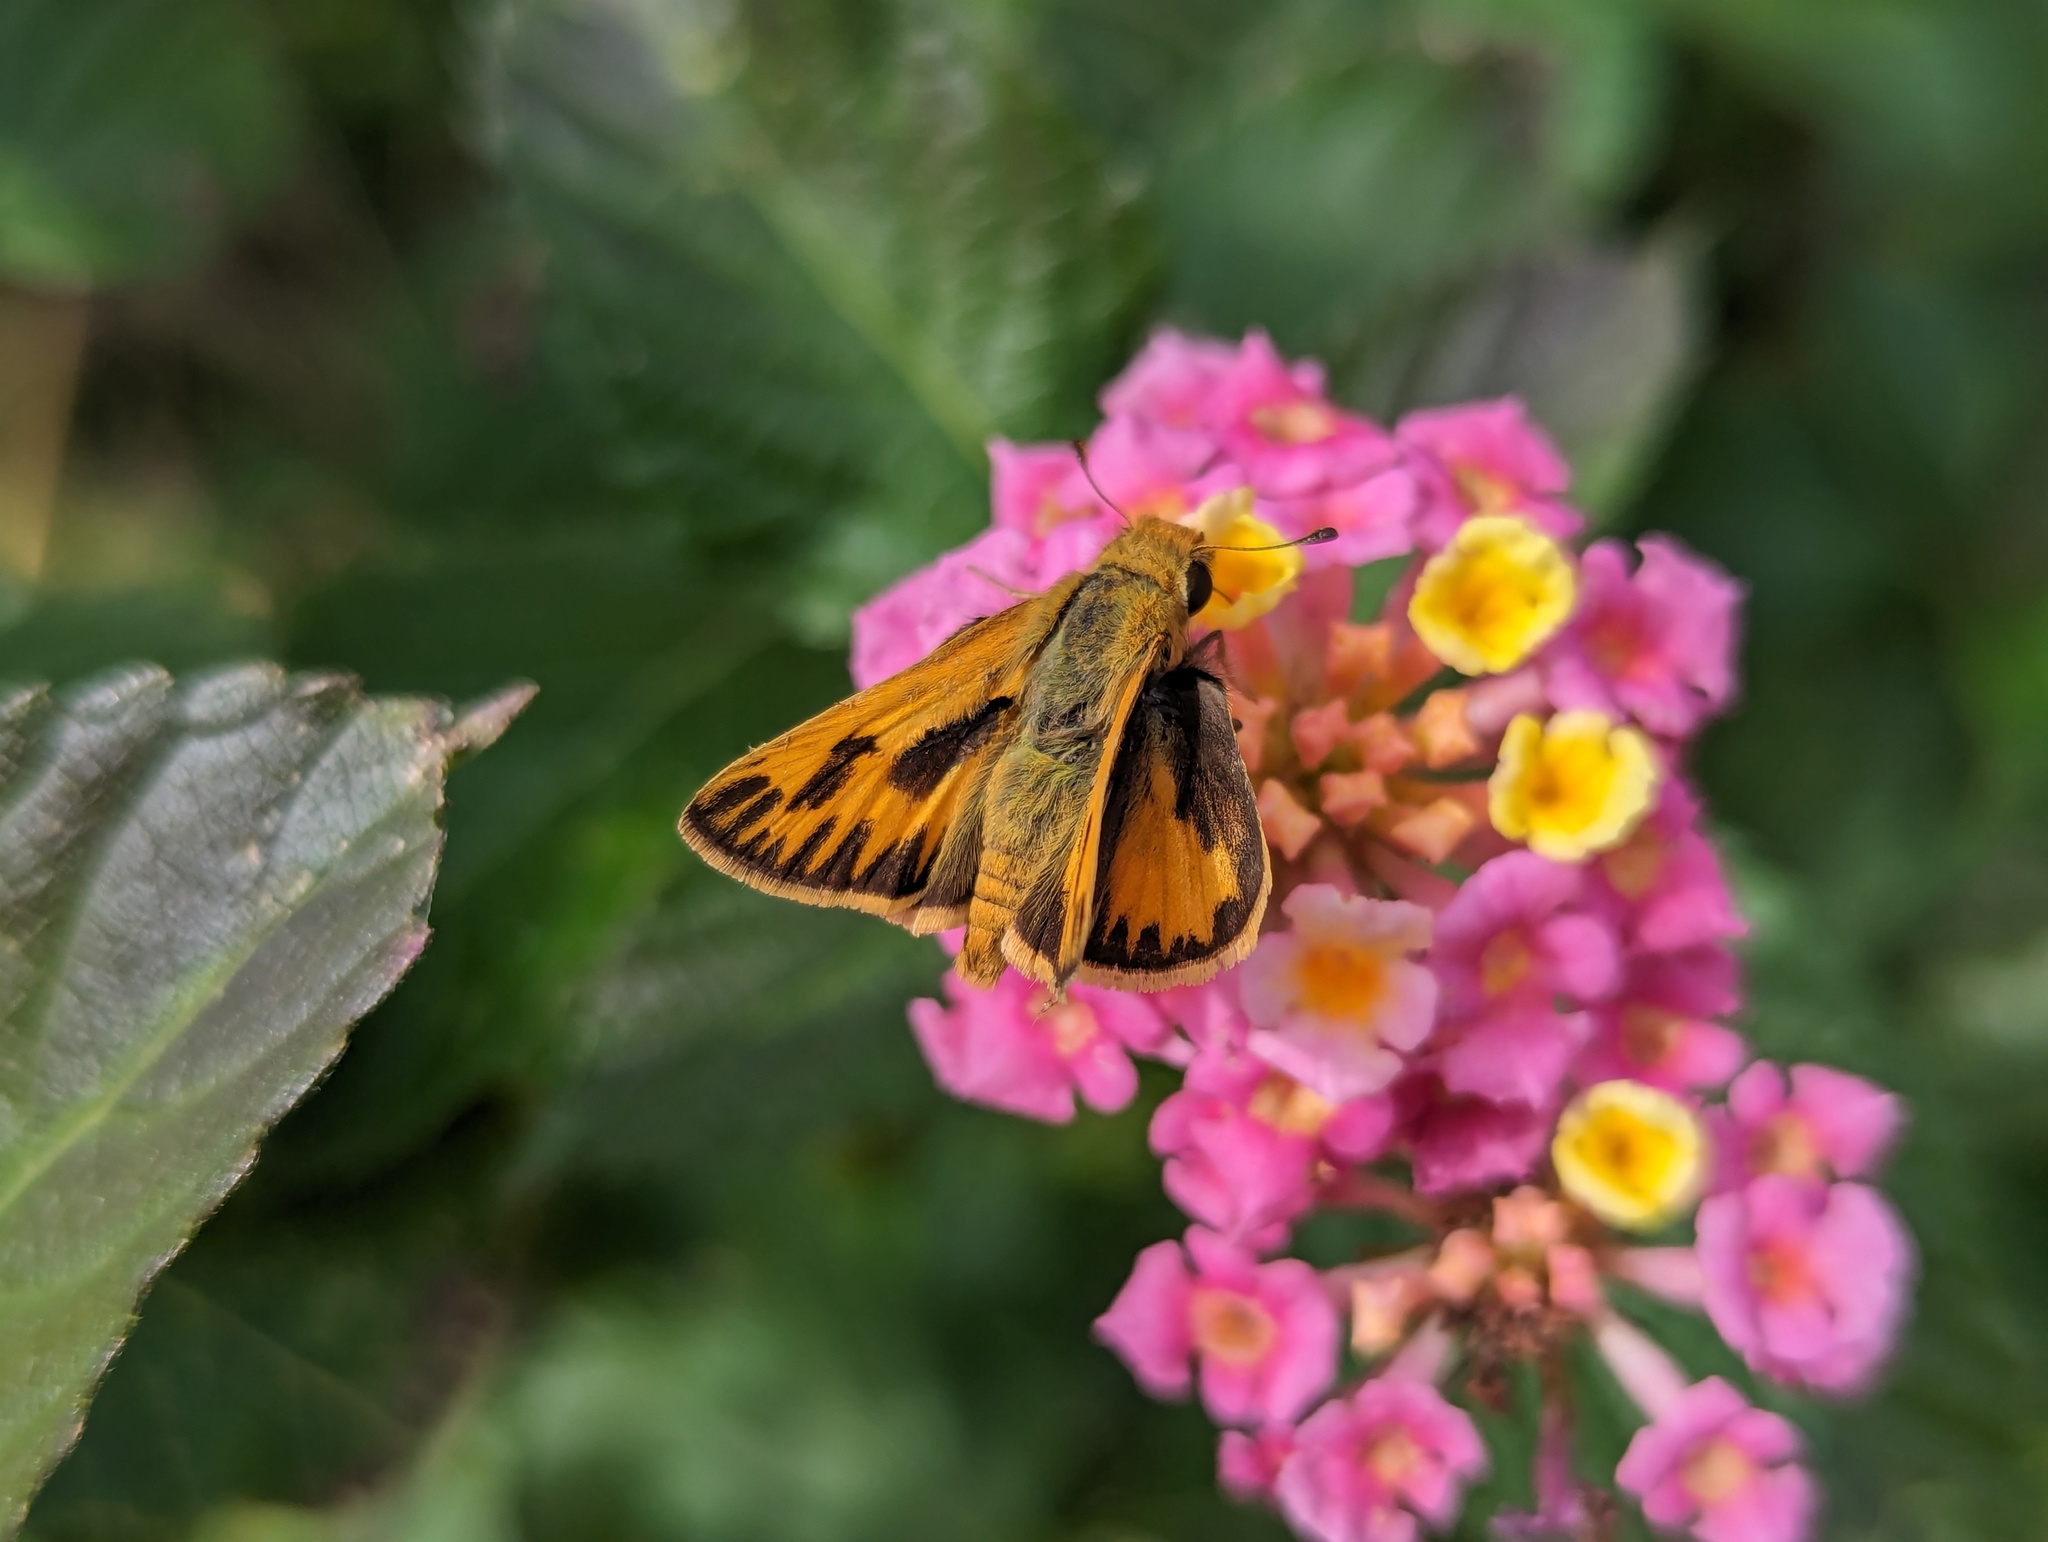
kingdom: Animalia
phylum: Arthropoda
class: Insecta
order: Lepidoptera
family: Hesperiidae
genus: Hylephila
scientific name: Hylephila phyleus
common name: Fiery skipper
